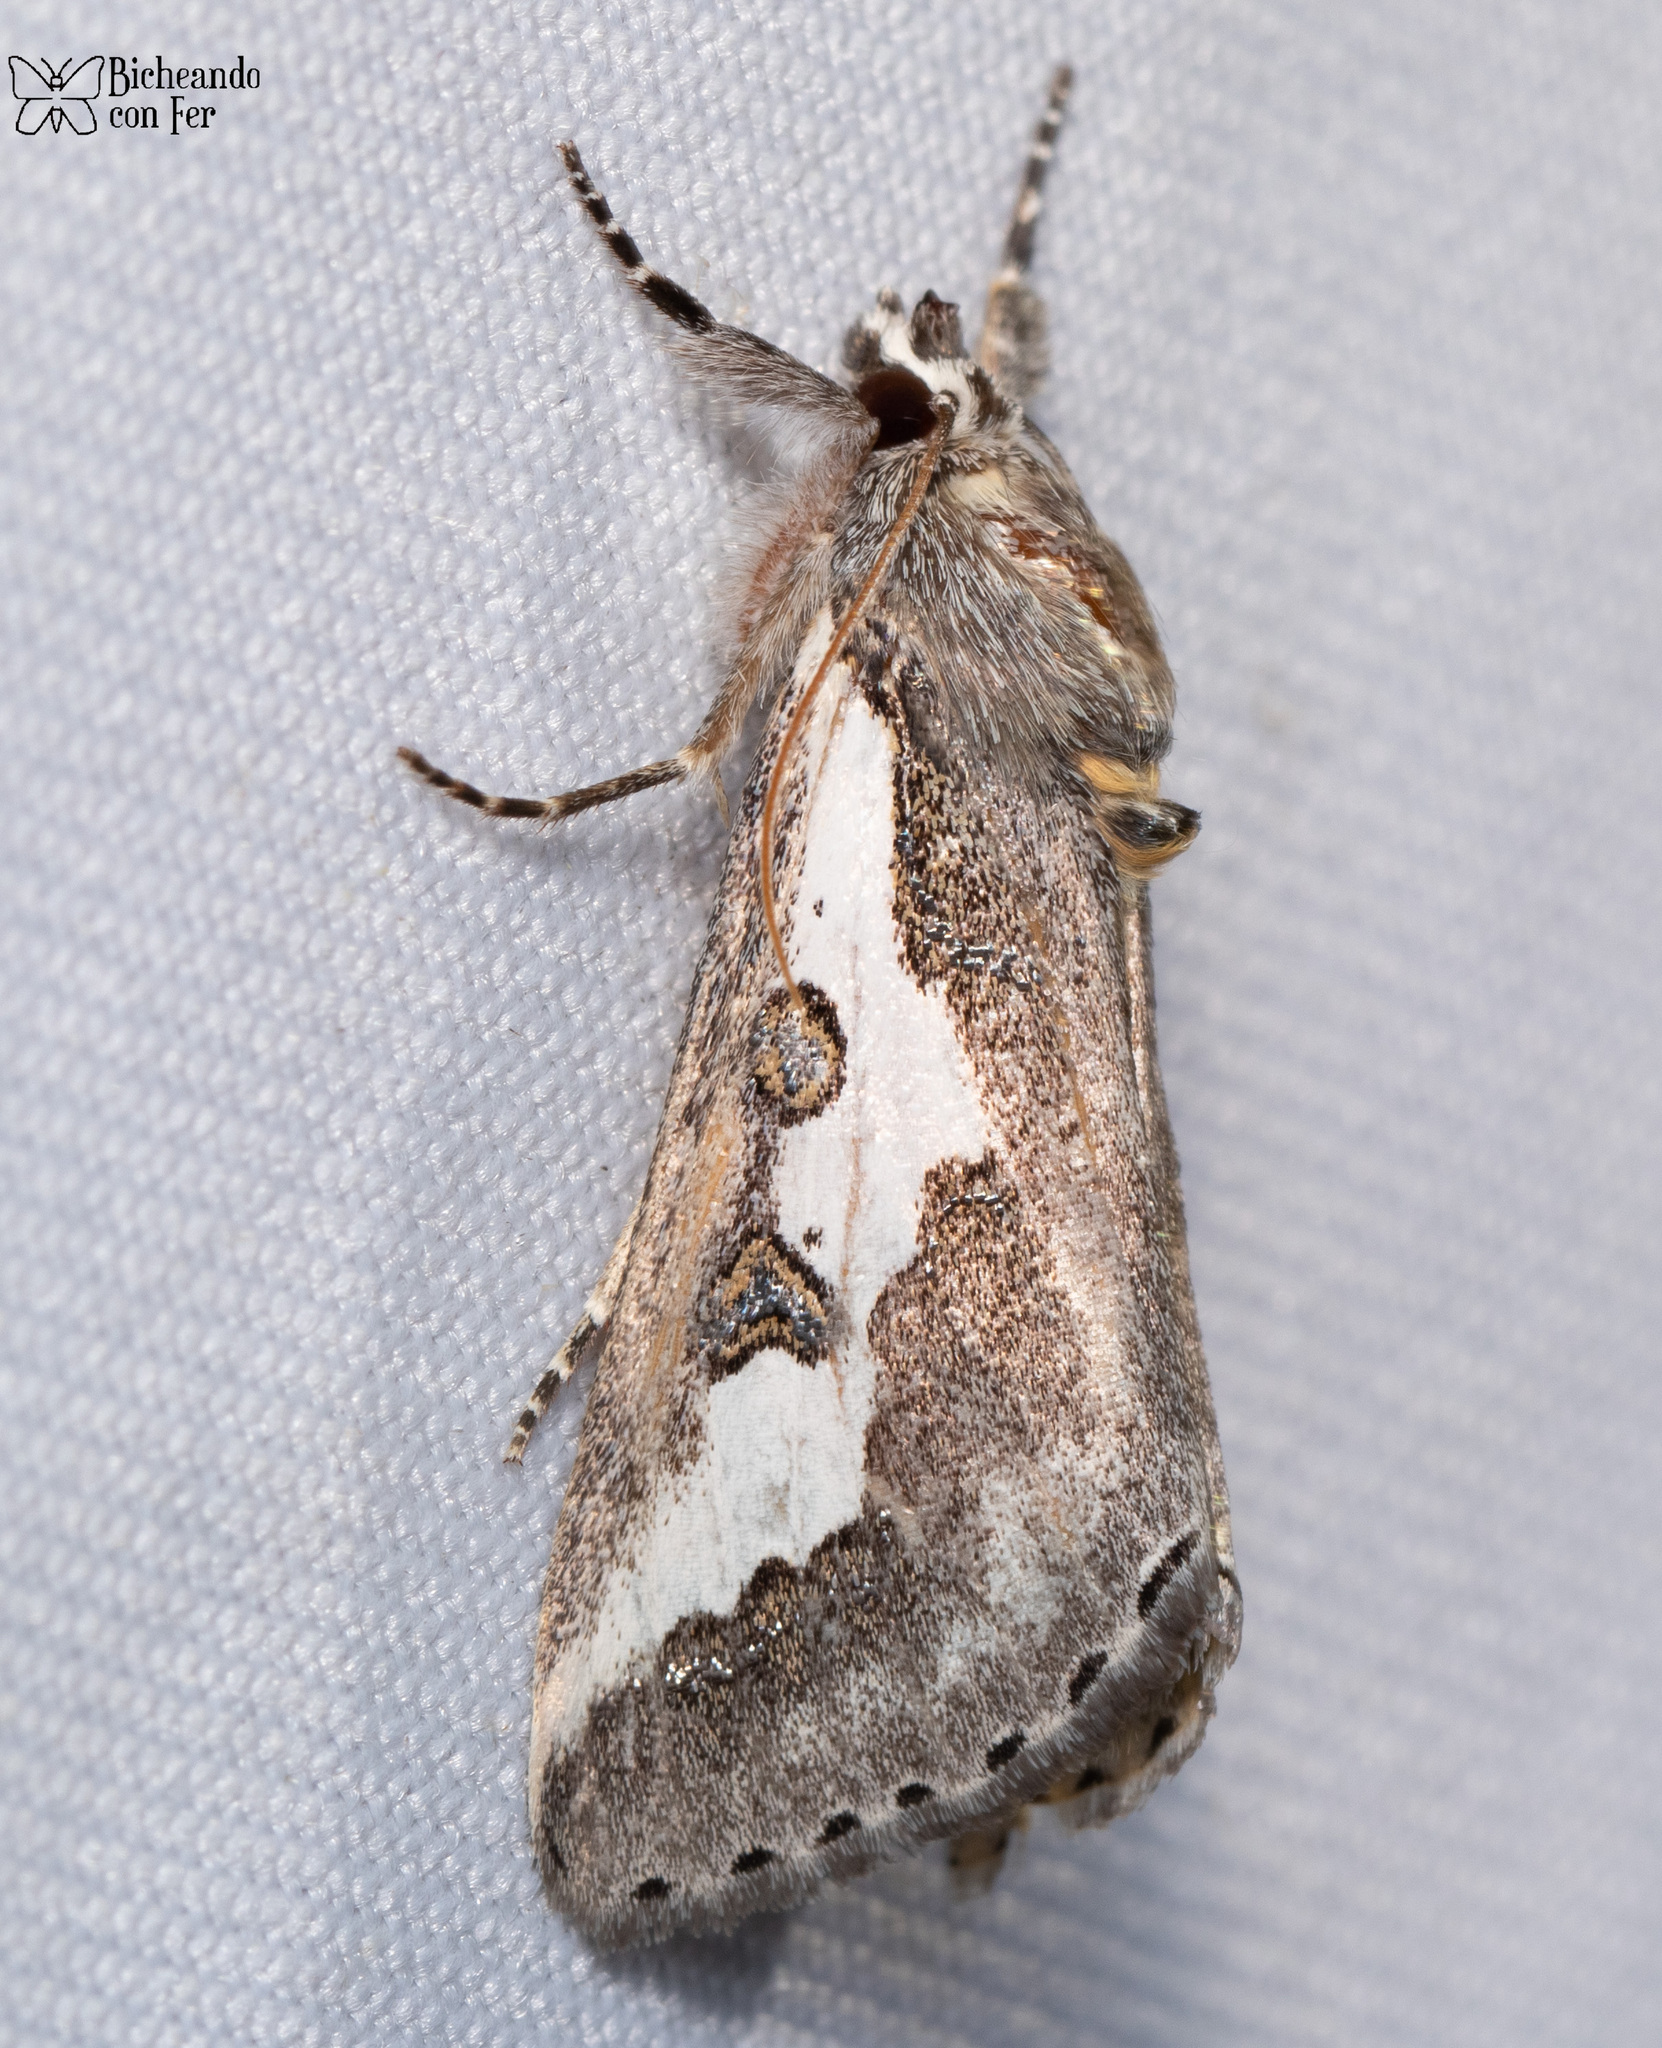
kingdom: Animalia
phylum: Arthropoda
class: Insecta
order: Lepidoptera
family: Noctuidae
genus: Euscirrhopterus
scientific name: Euscirrhopterus gloveri
